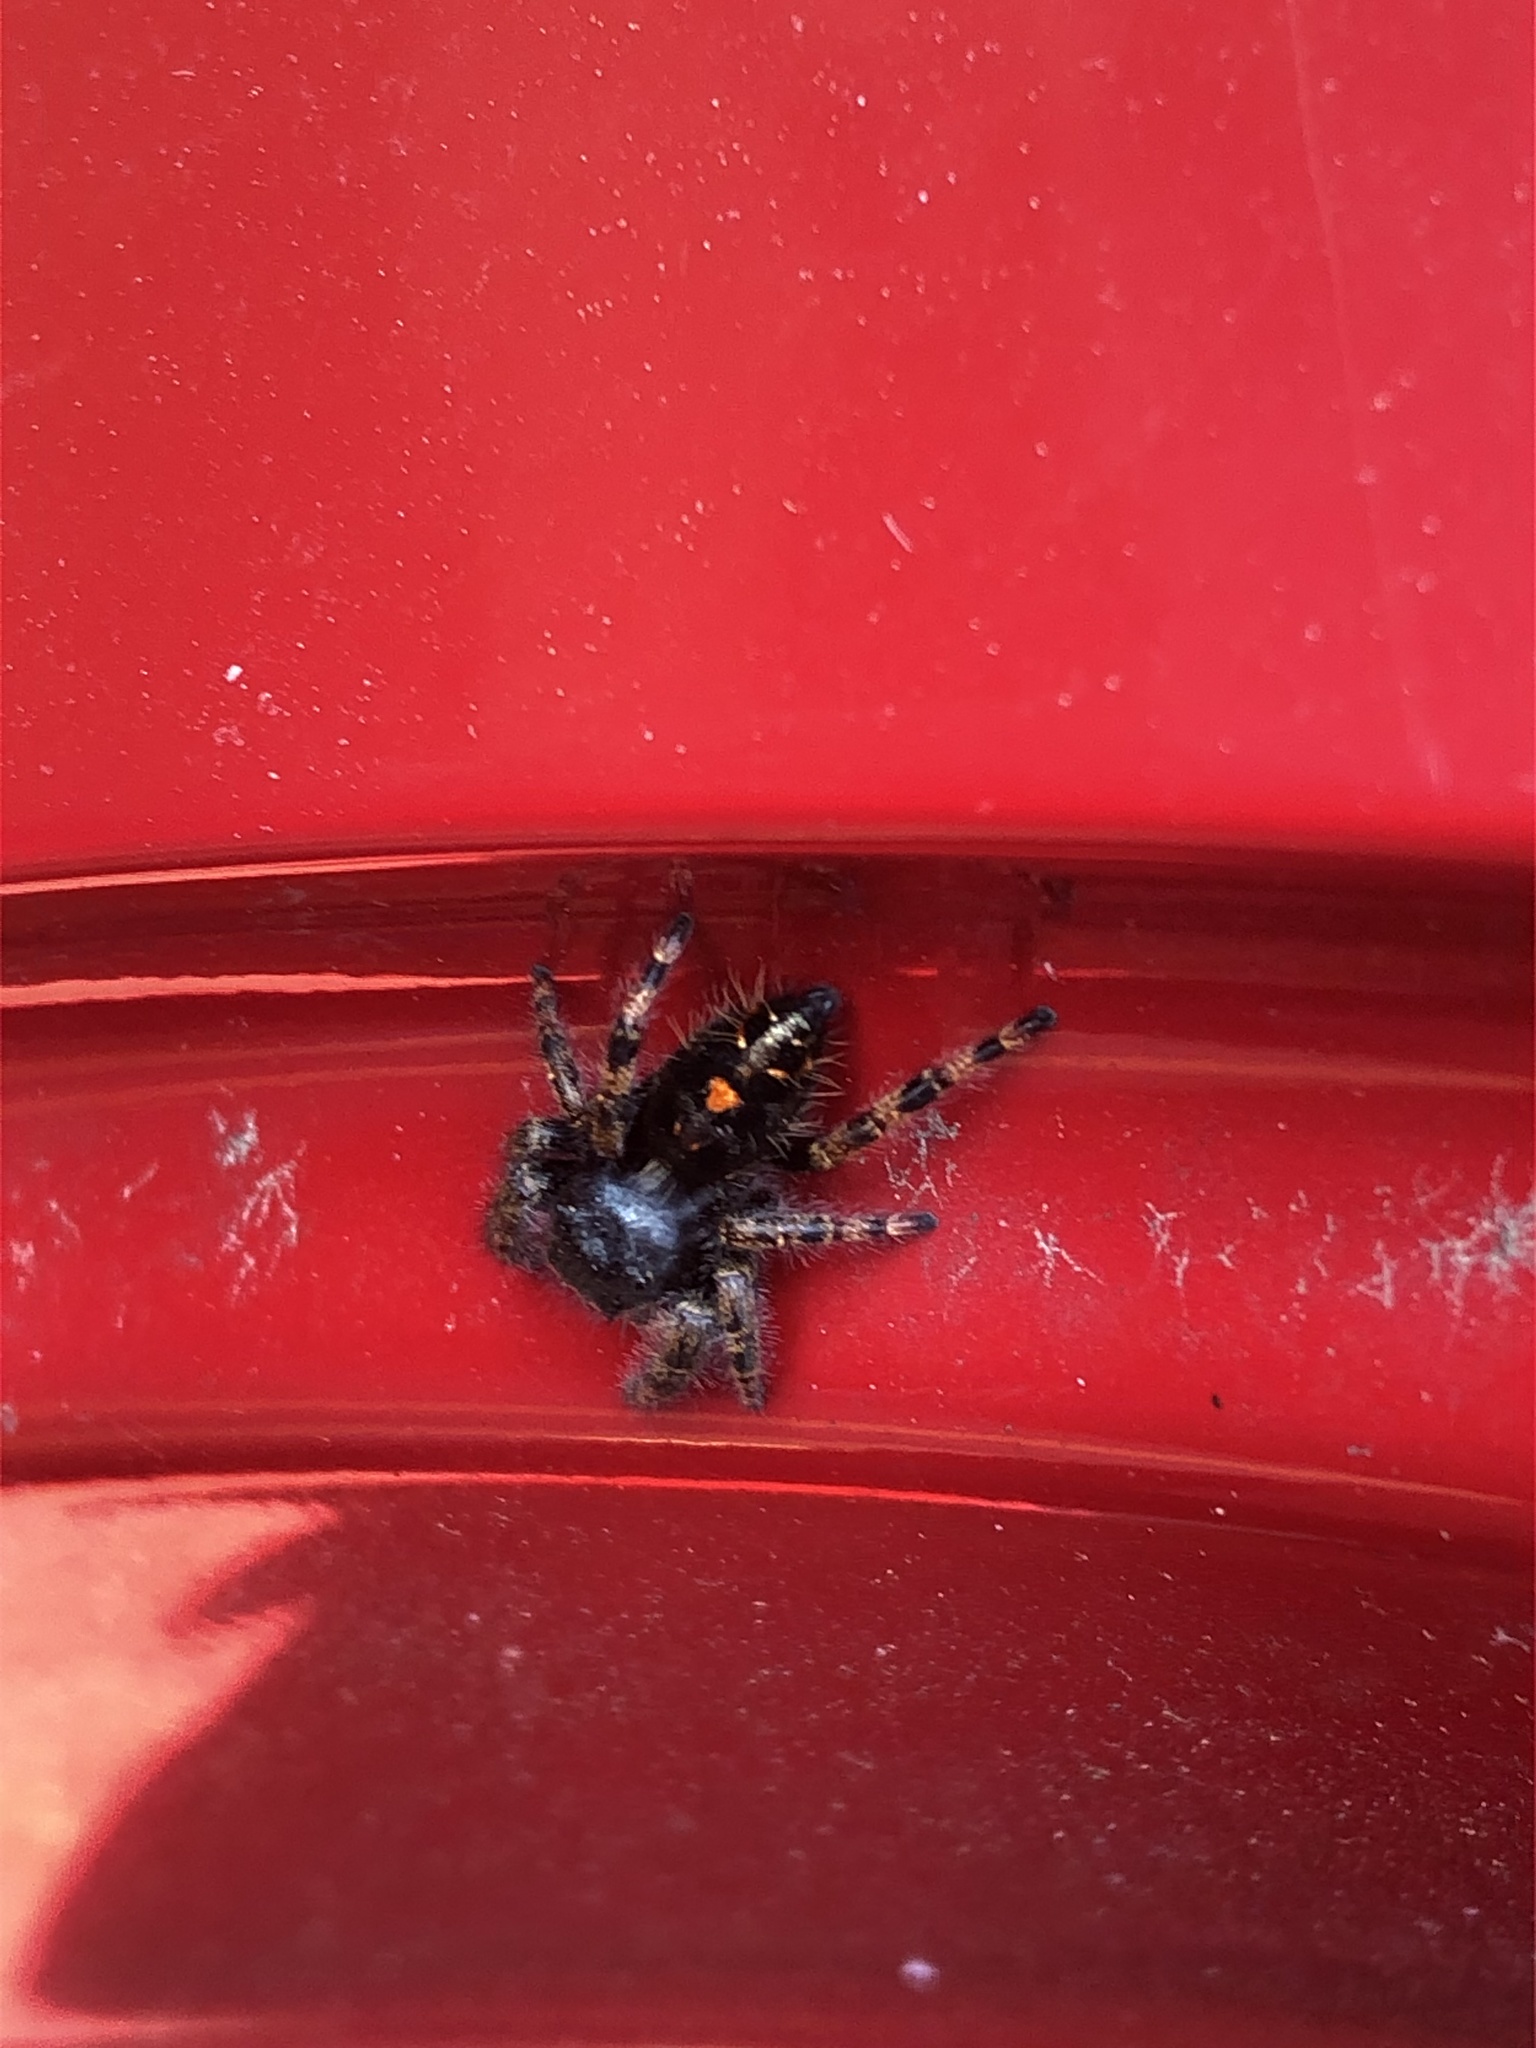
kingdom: Animalia
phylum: Arthropoda
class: Arachnida
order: Araneae
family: Salticidae
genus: Phidippus
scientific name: Phidippus audax
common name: Bold jumper
